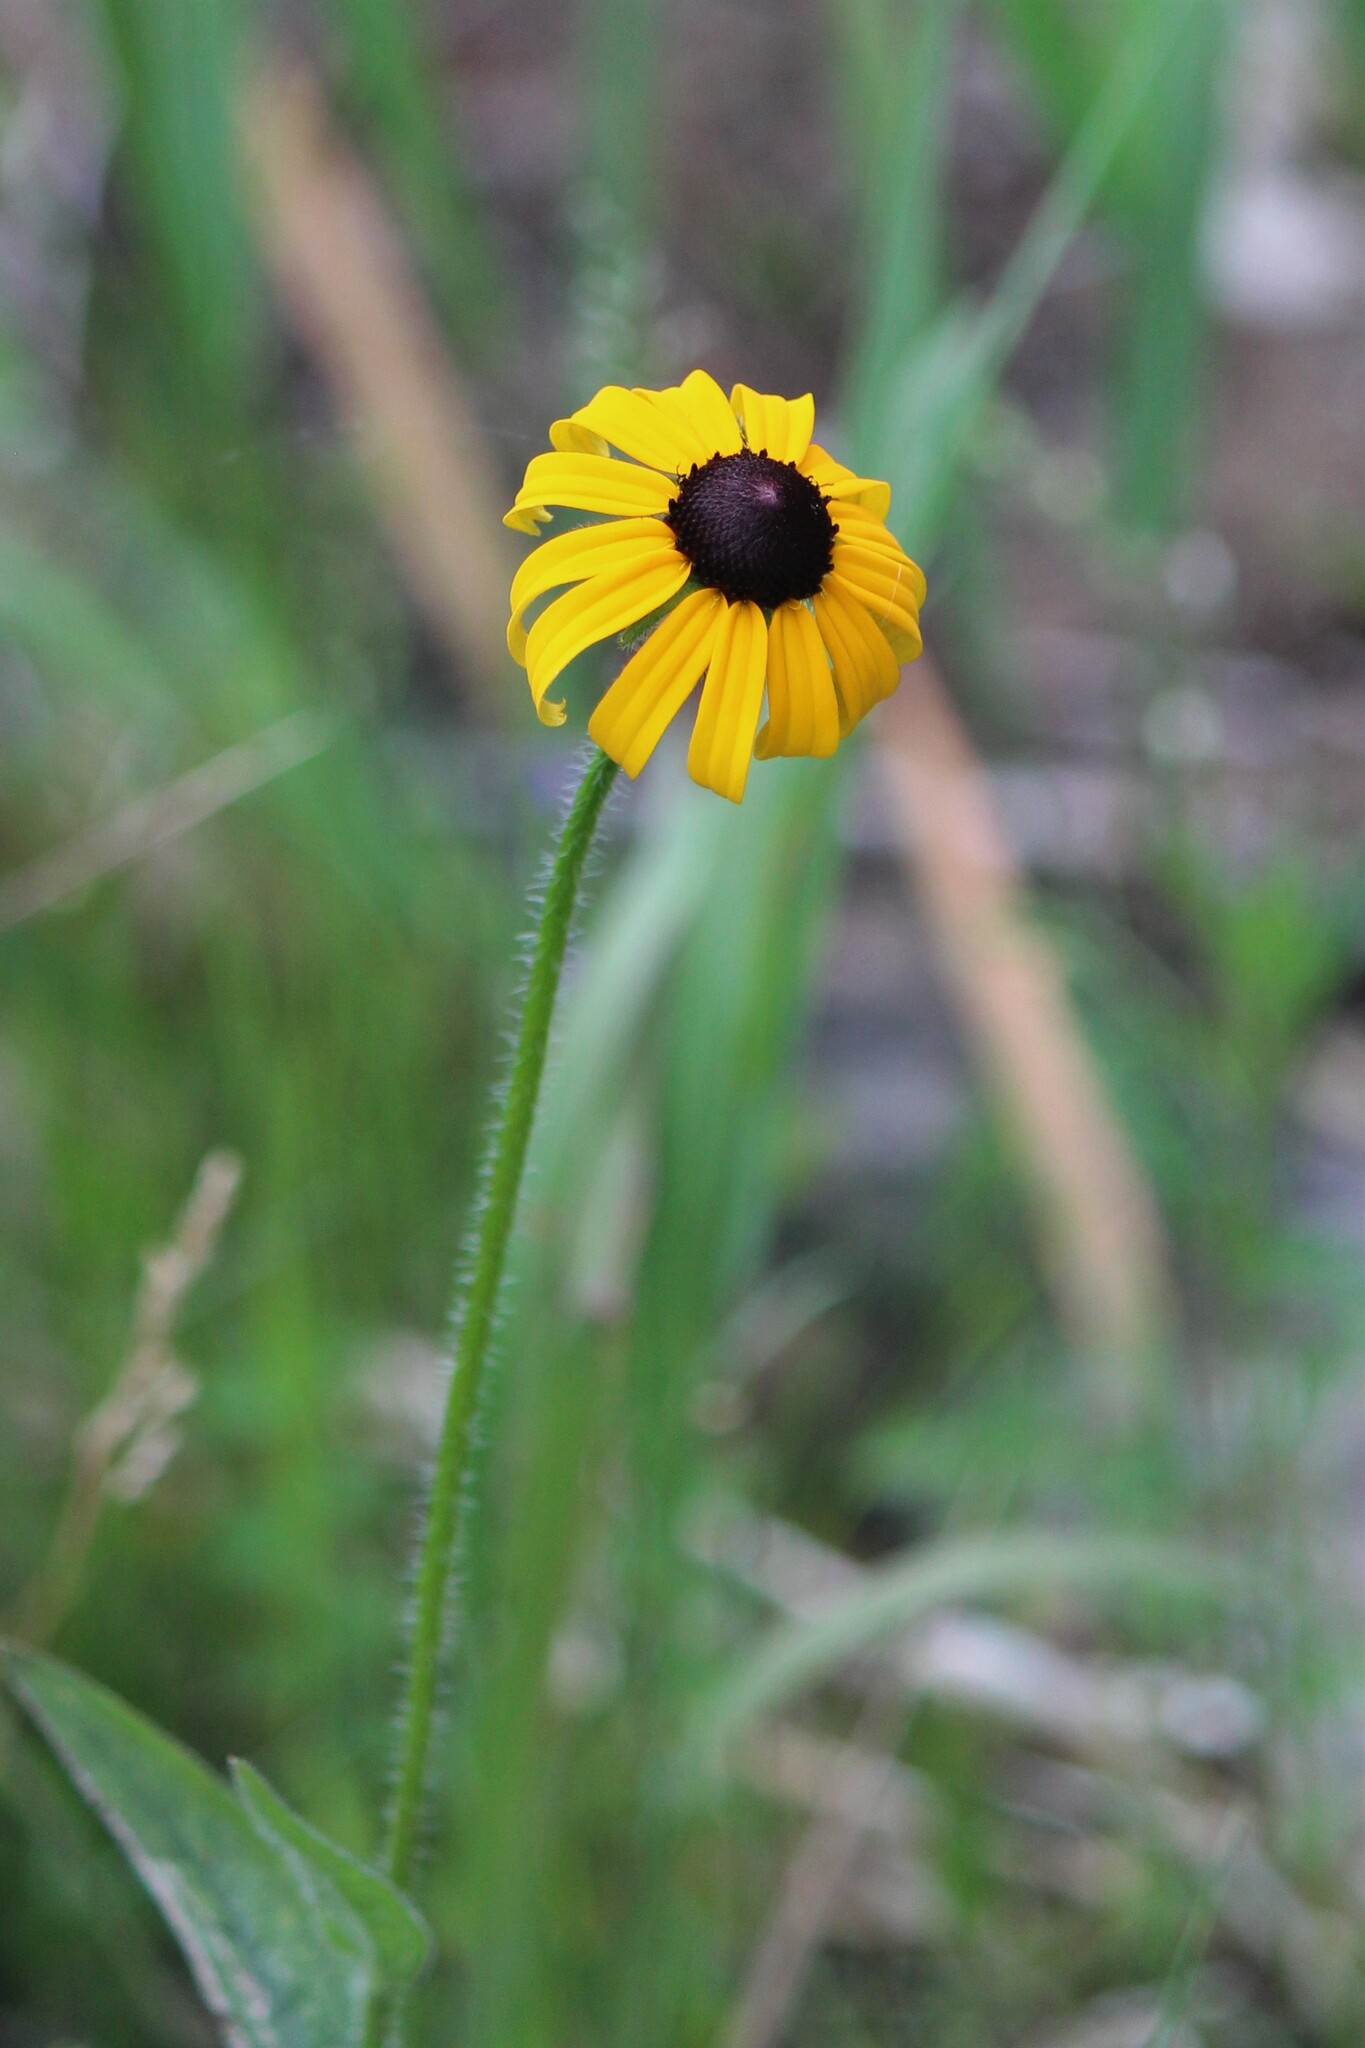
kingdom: Plantae
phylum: Tracheophyta
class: Magnoliopsida
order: Asterales
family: Asteraceae
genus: Rudbeckia
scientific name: Rudbeckia hirta
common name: Black-eyed-susan
